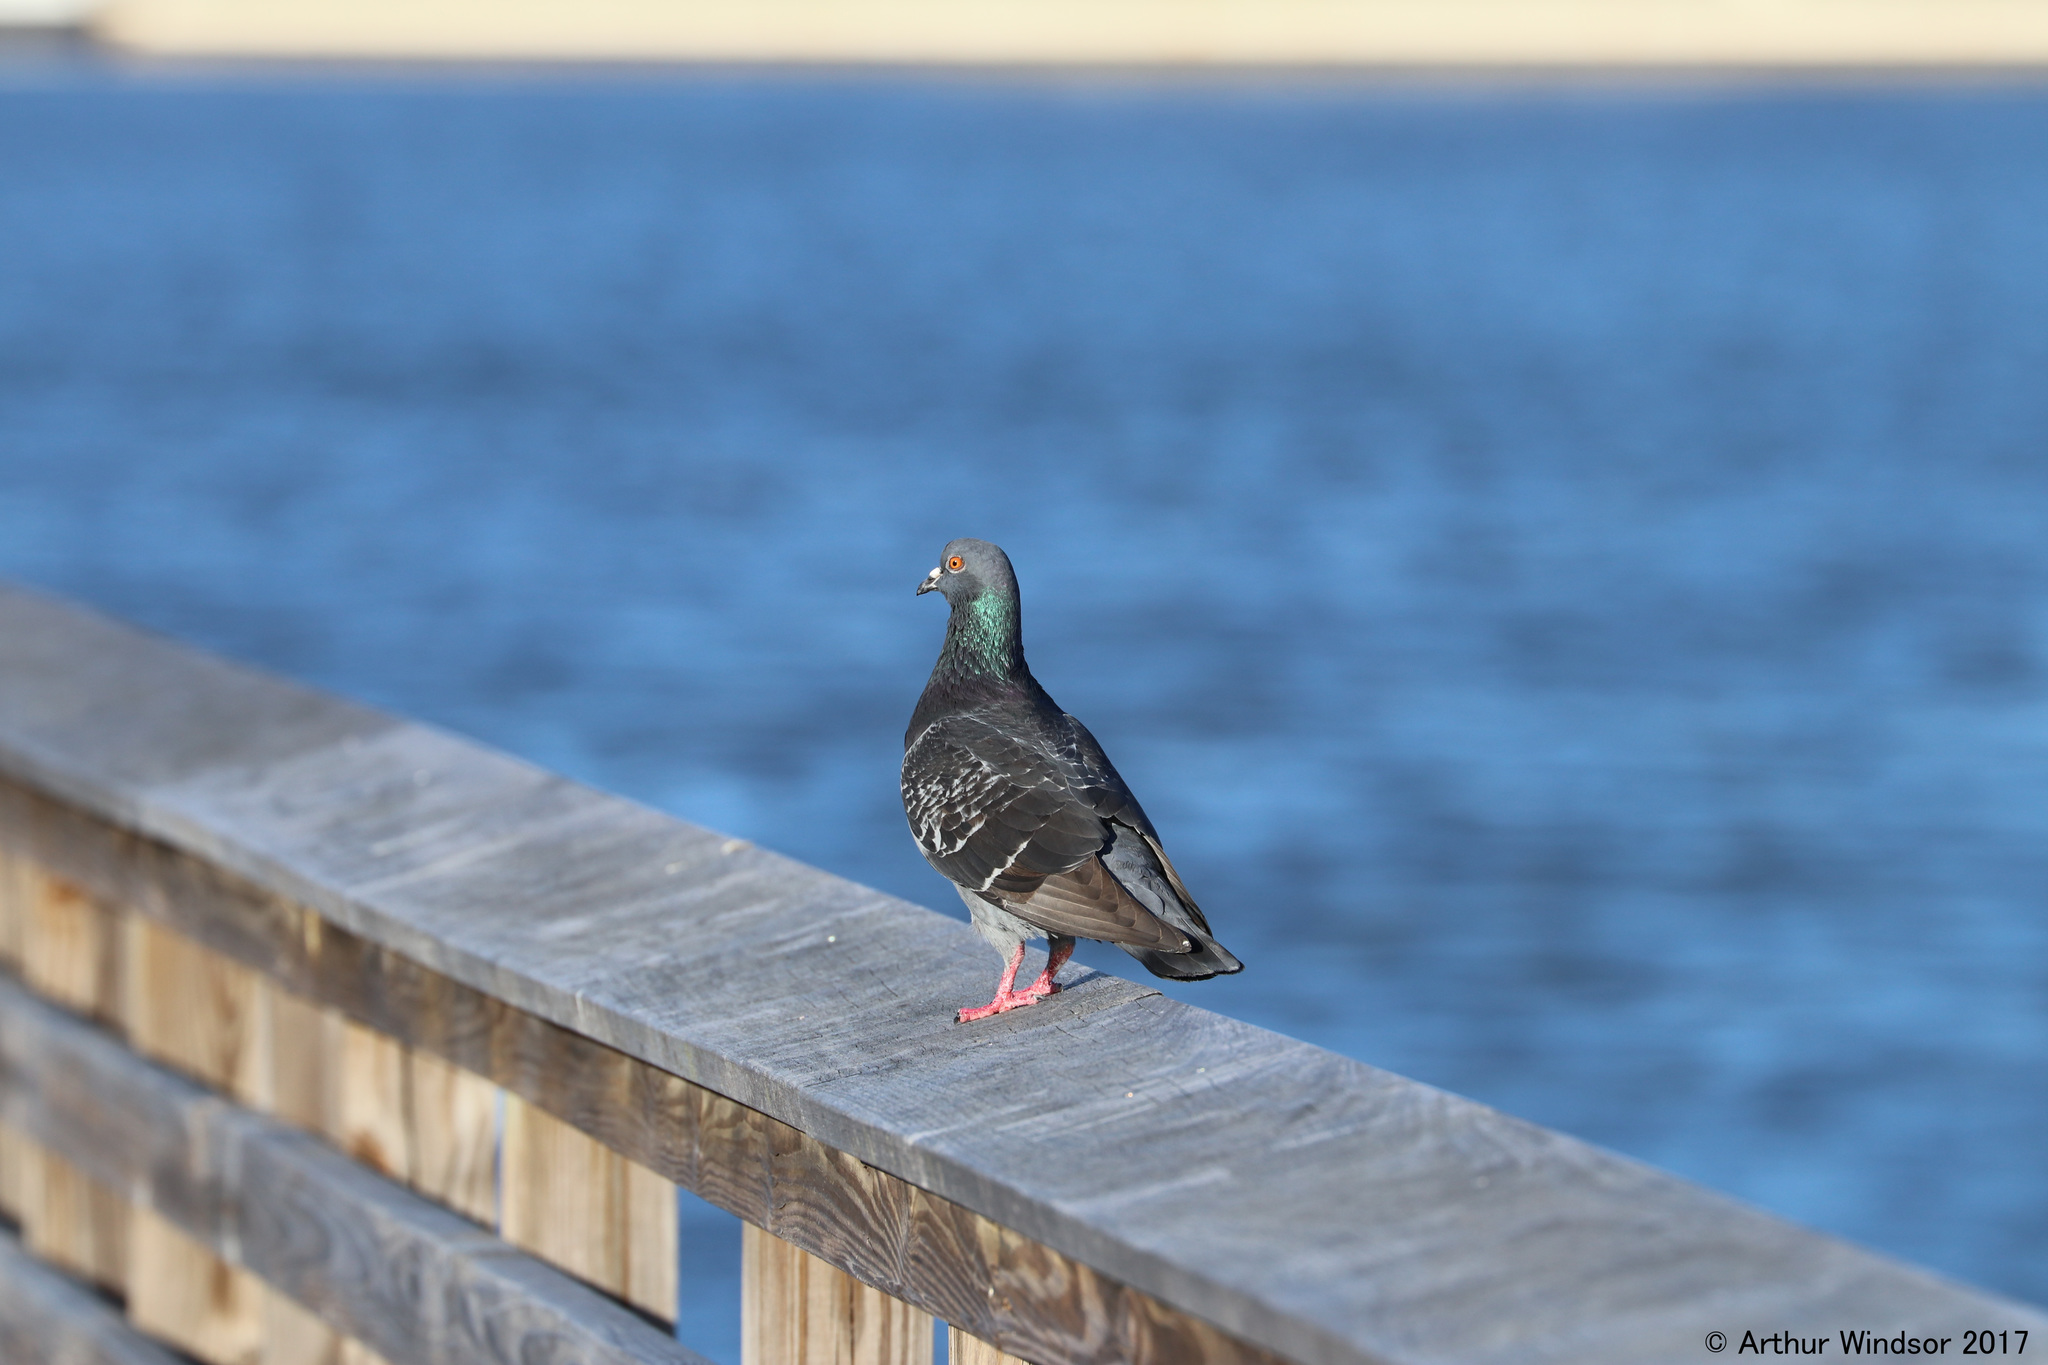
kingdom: Animalia
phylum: Chordata
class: Aves
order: Columbiformes
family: Columbidae
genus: Columba
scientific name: Columba livia
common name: Rock pigeon
